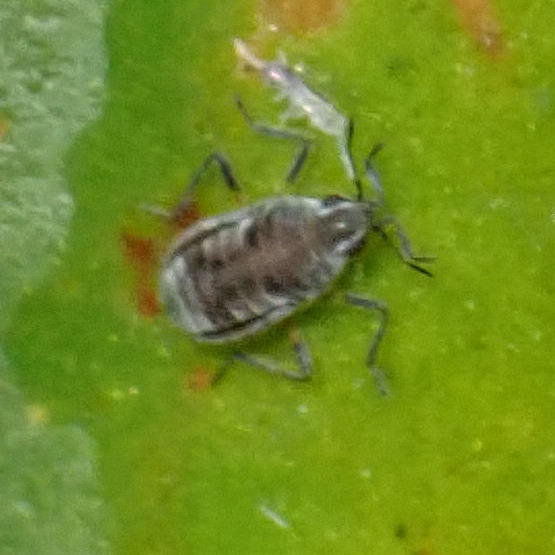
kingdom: Animalia
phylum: Arthropoda
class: Insecta
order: Hemiptera
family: Veliidae
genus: Microvelia
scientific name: Microvelia pulchella
